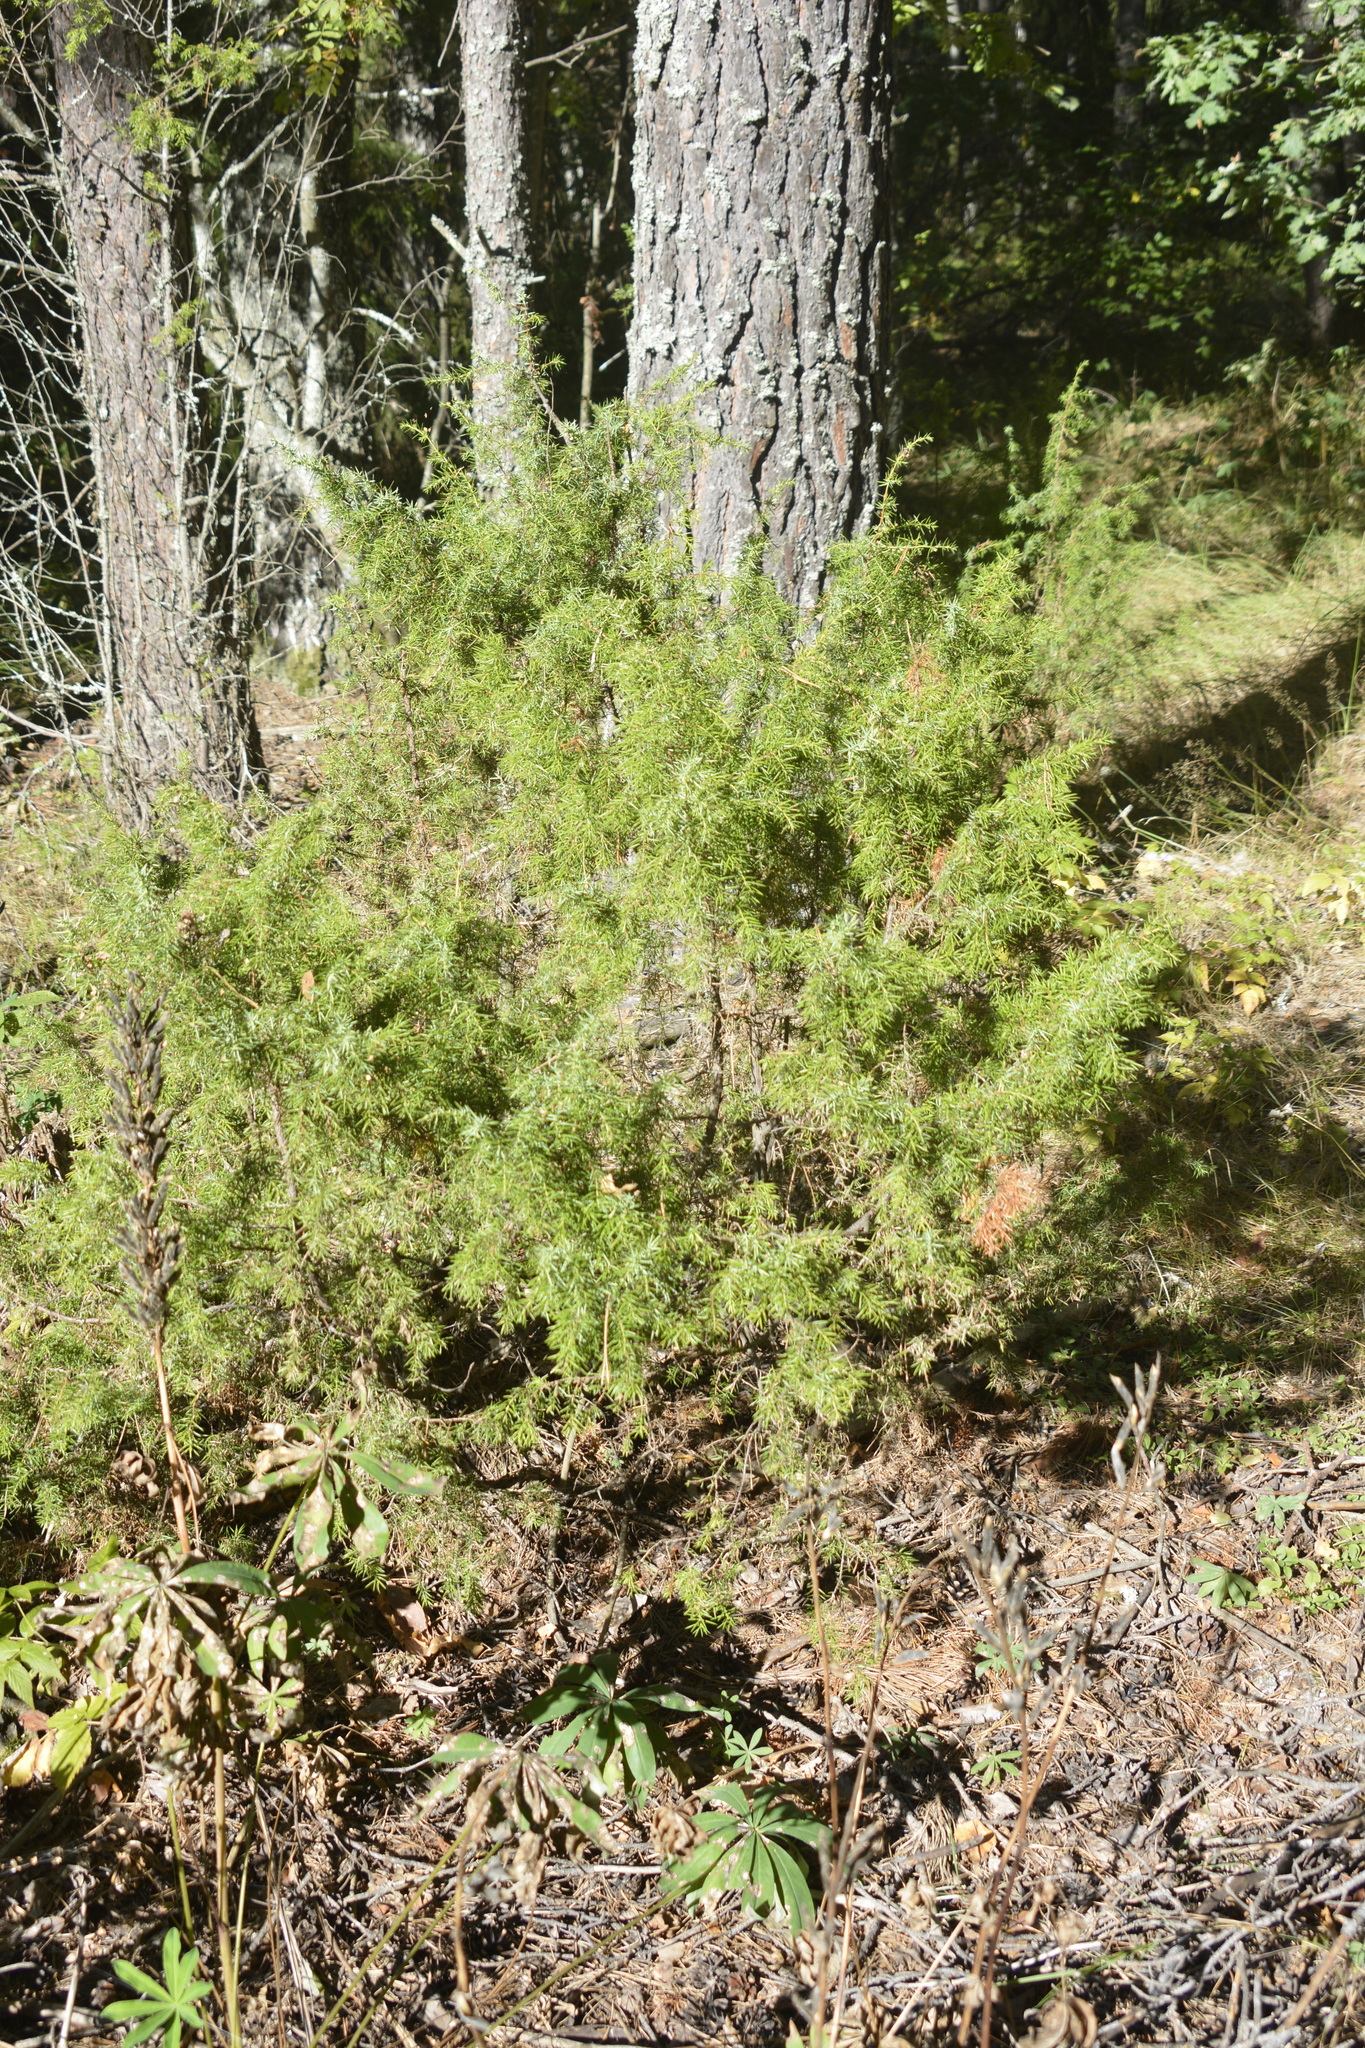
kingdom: Plantae
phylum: Tracheophyta
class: Pinopsida
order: Pinales
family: Cupressaceae
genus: Juniperus
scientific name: Juniperus communis
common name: Common juniper
